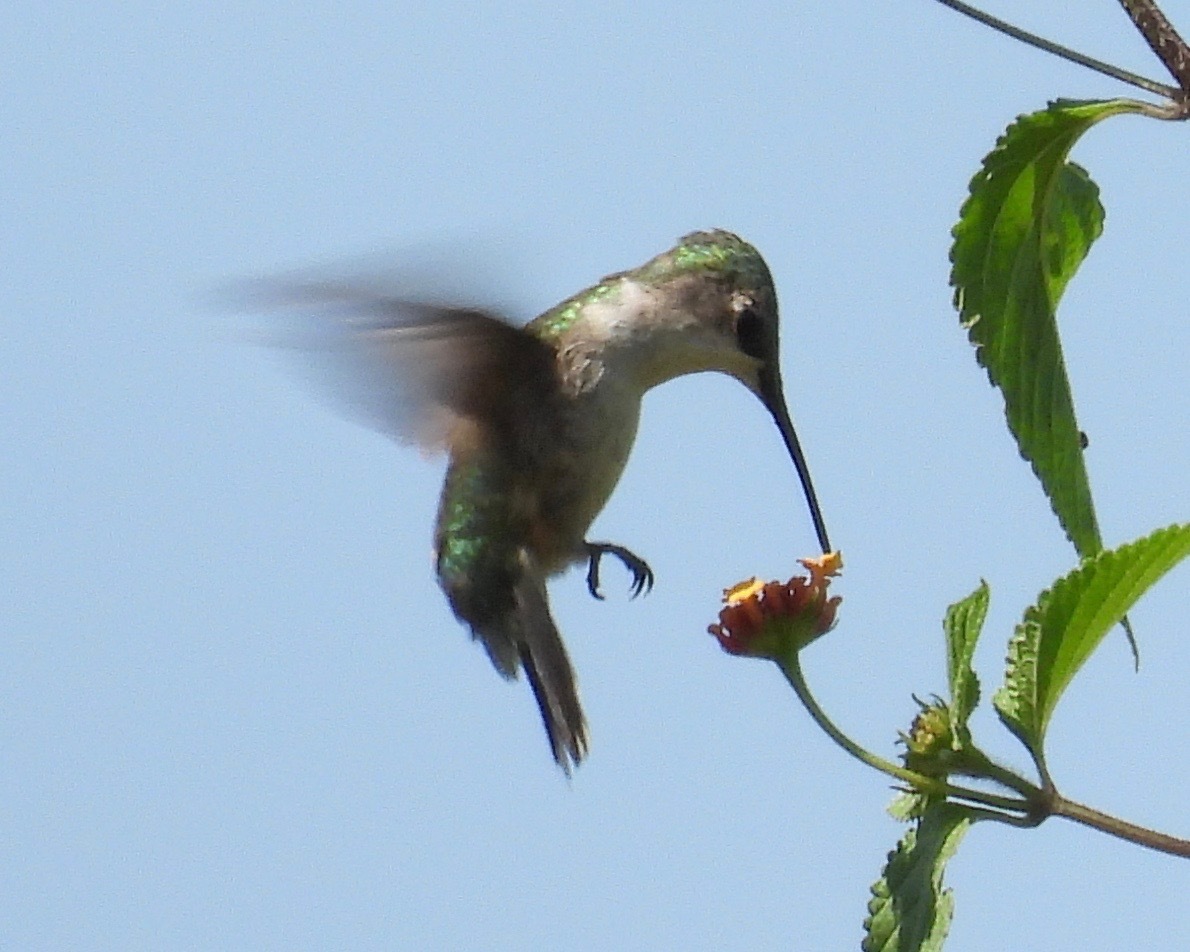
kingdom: Animalia
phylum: Chordata
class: Aves
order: Apodiformes
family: Trochilidae
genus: Archilochus
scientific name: Archilochus colubris
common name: Ruby-throated hummingbird
